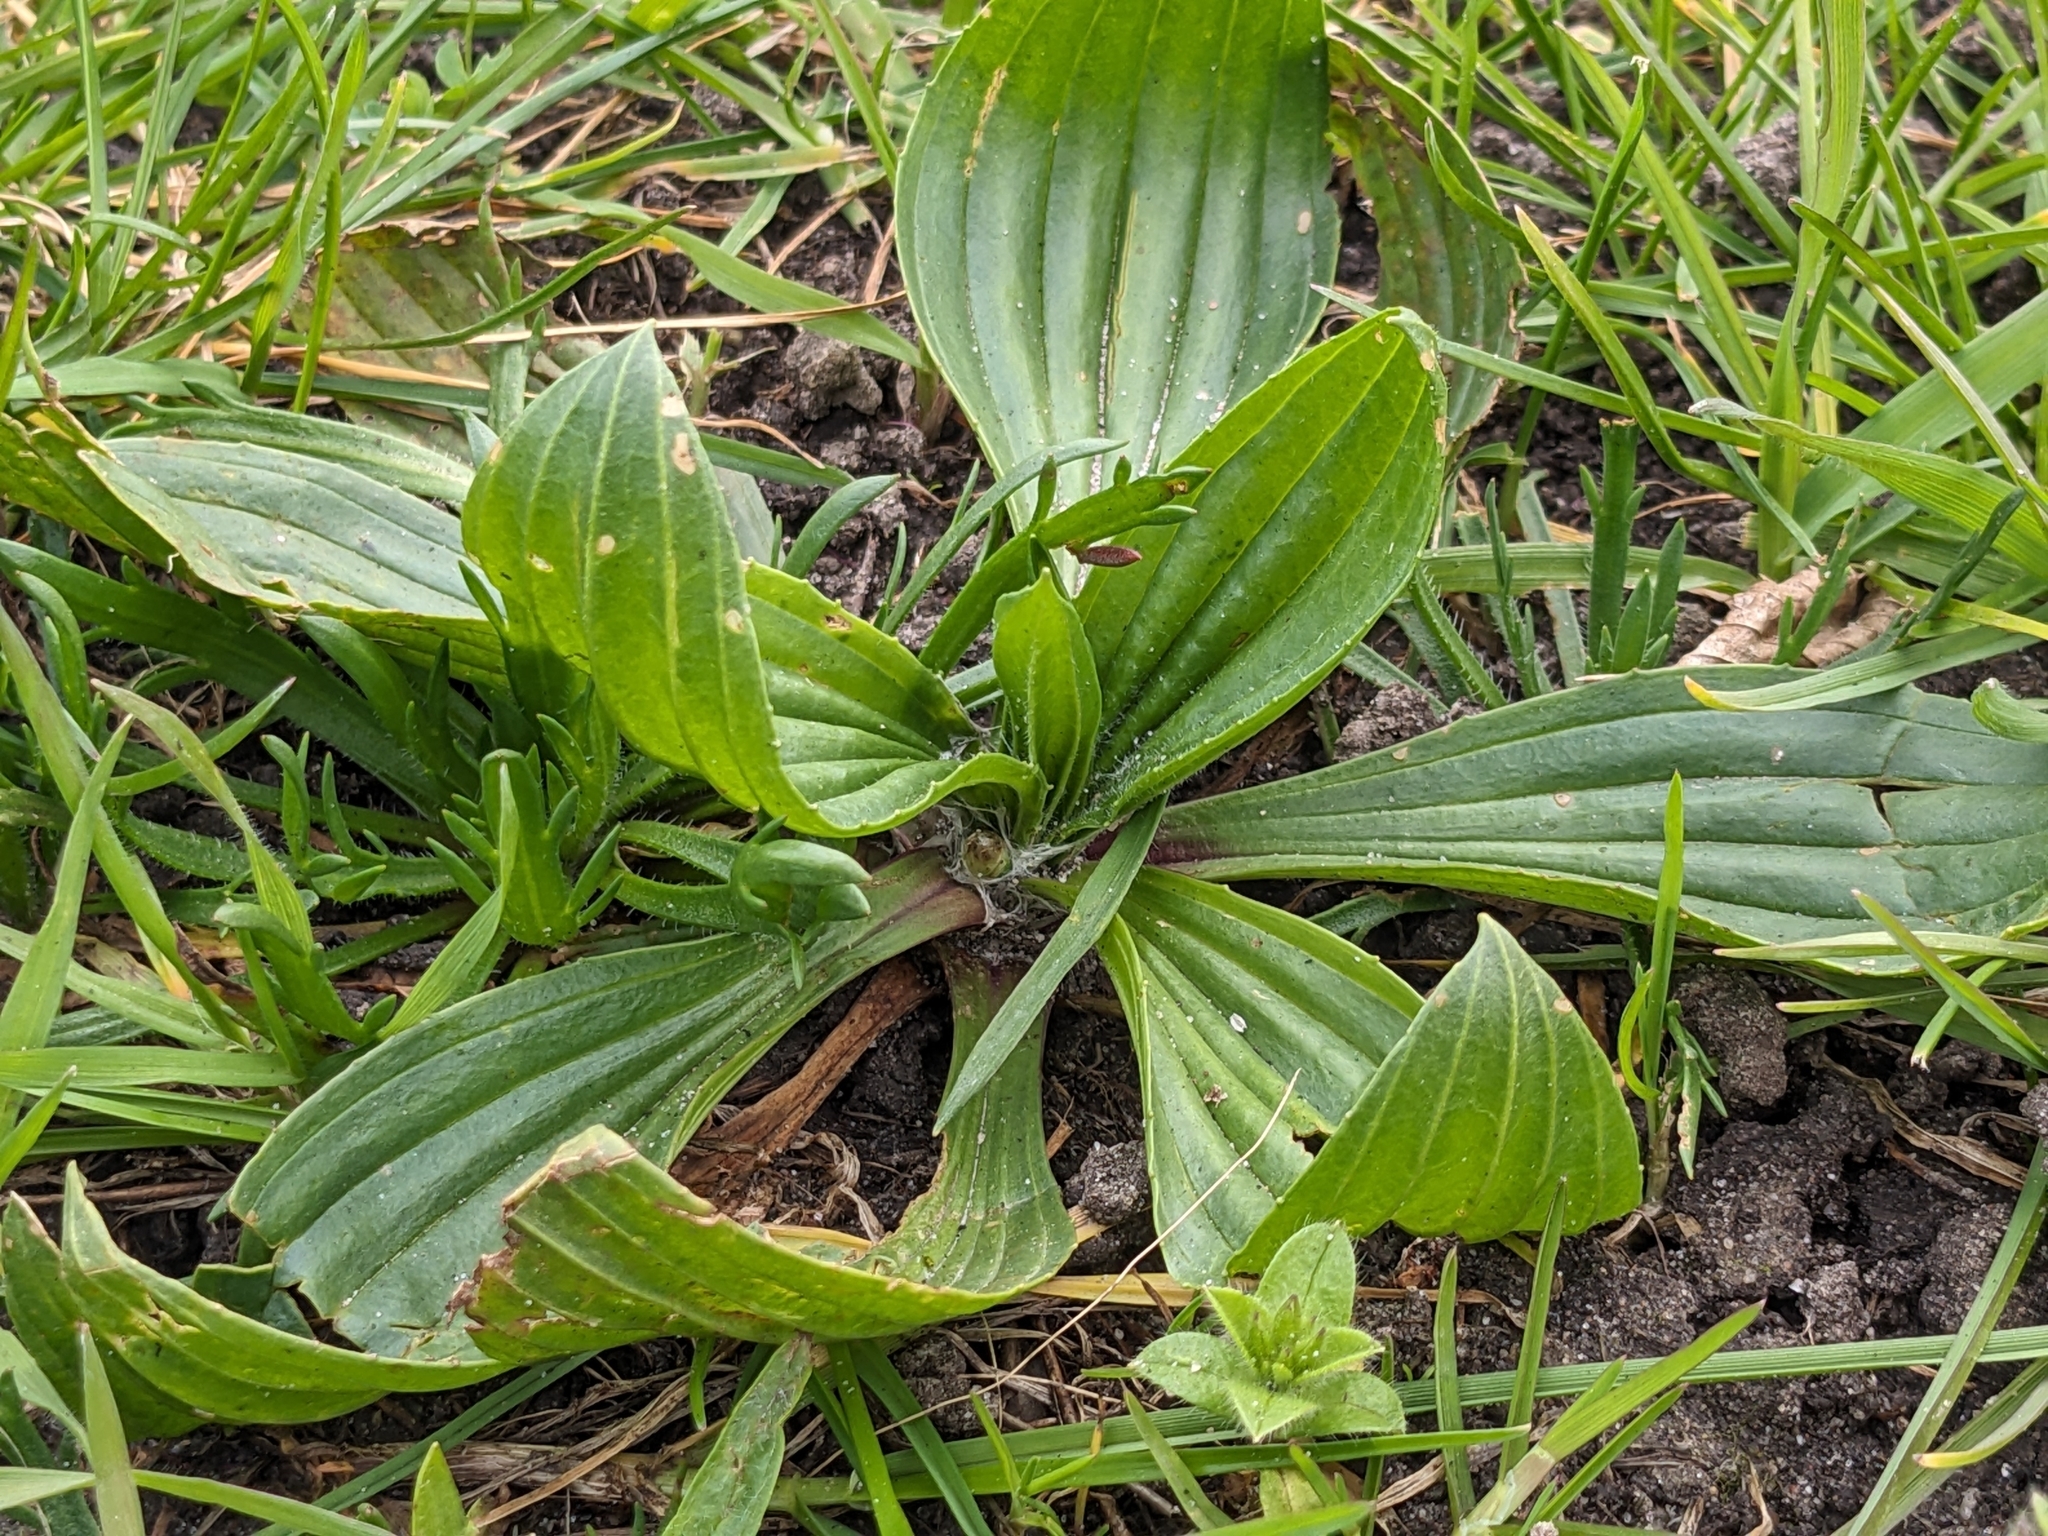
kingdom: Plantae
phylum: Tracheophyta
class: Magnoliopsida
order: Lamiales
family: Plantaginaceae
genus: Plantago
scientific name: Plantago lanceolata
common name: Ribwort plantain
